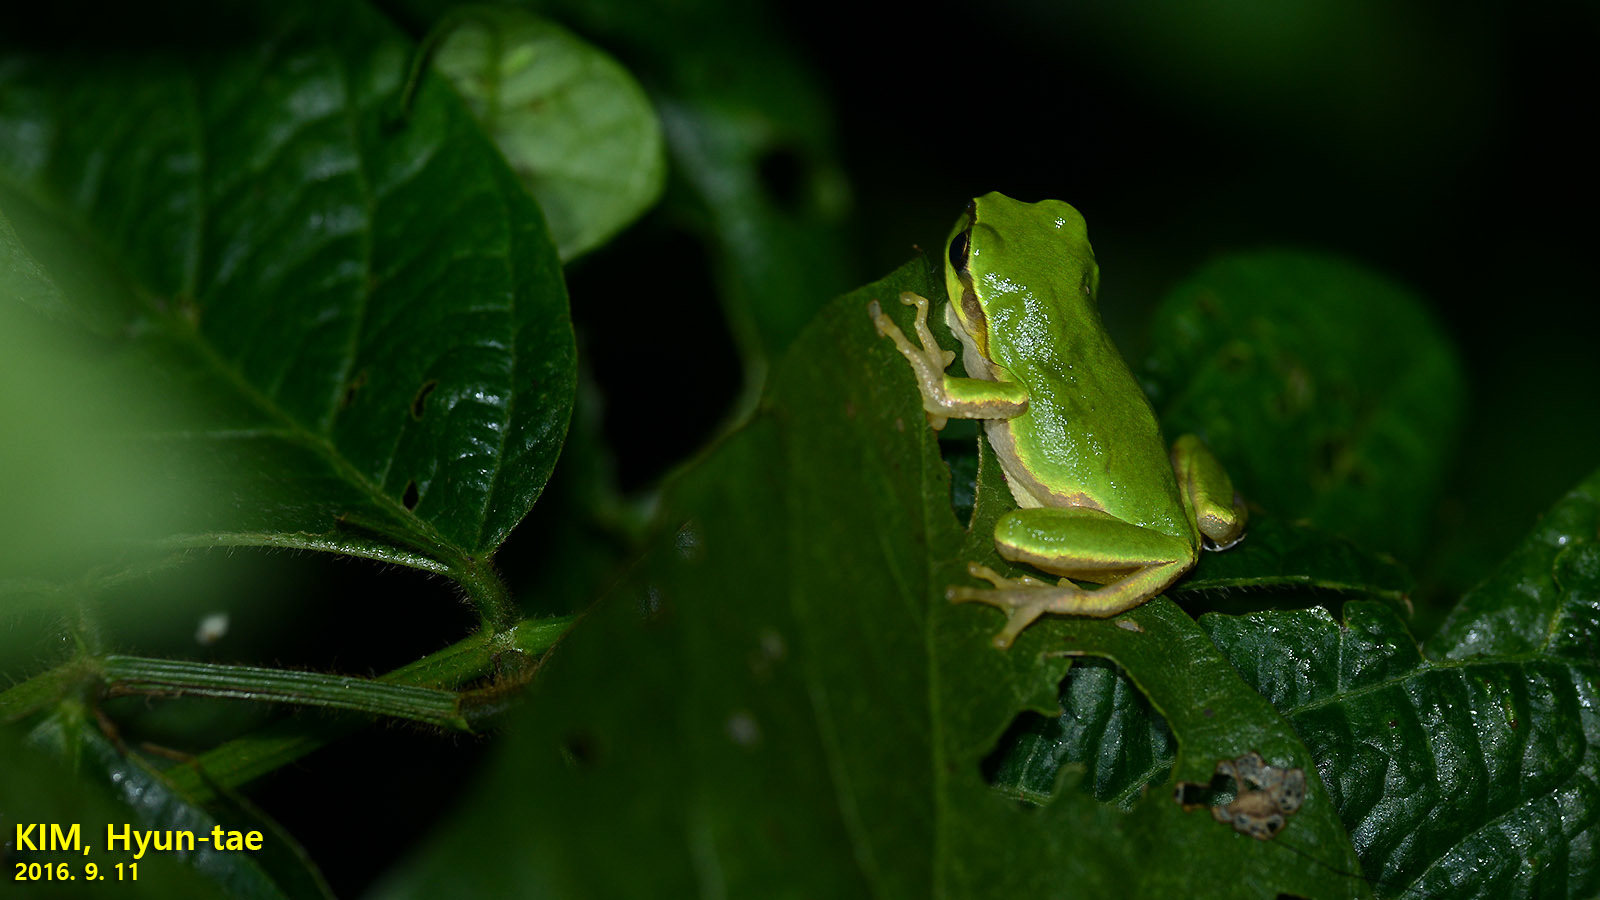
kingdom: Animalia
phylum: Chordata
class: Amphibia
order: Anura
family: Hylidae
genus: Dryophytes
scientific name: Dryophytes japonicus
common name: Japanese treefrog
